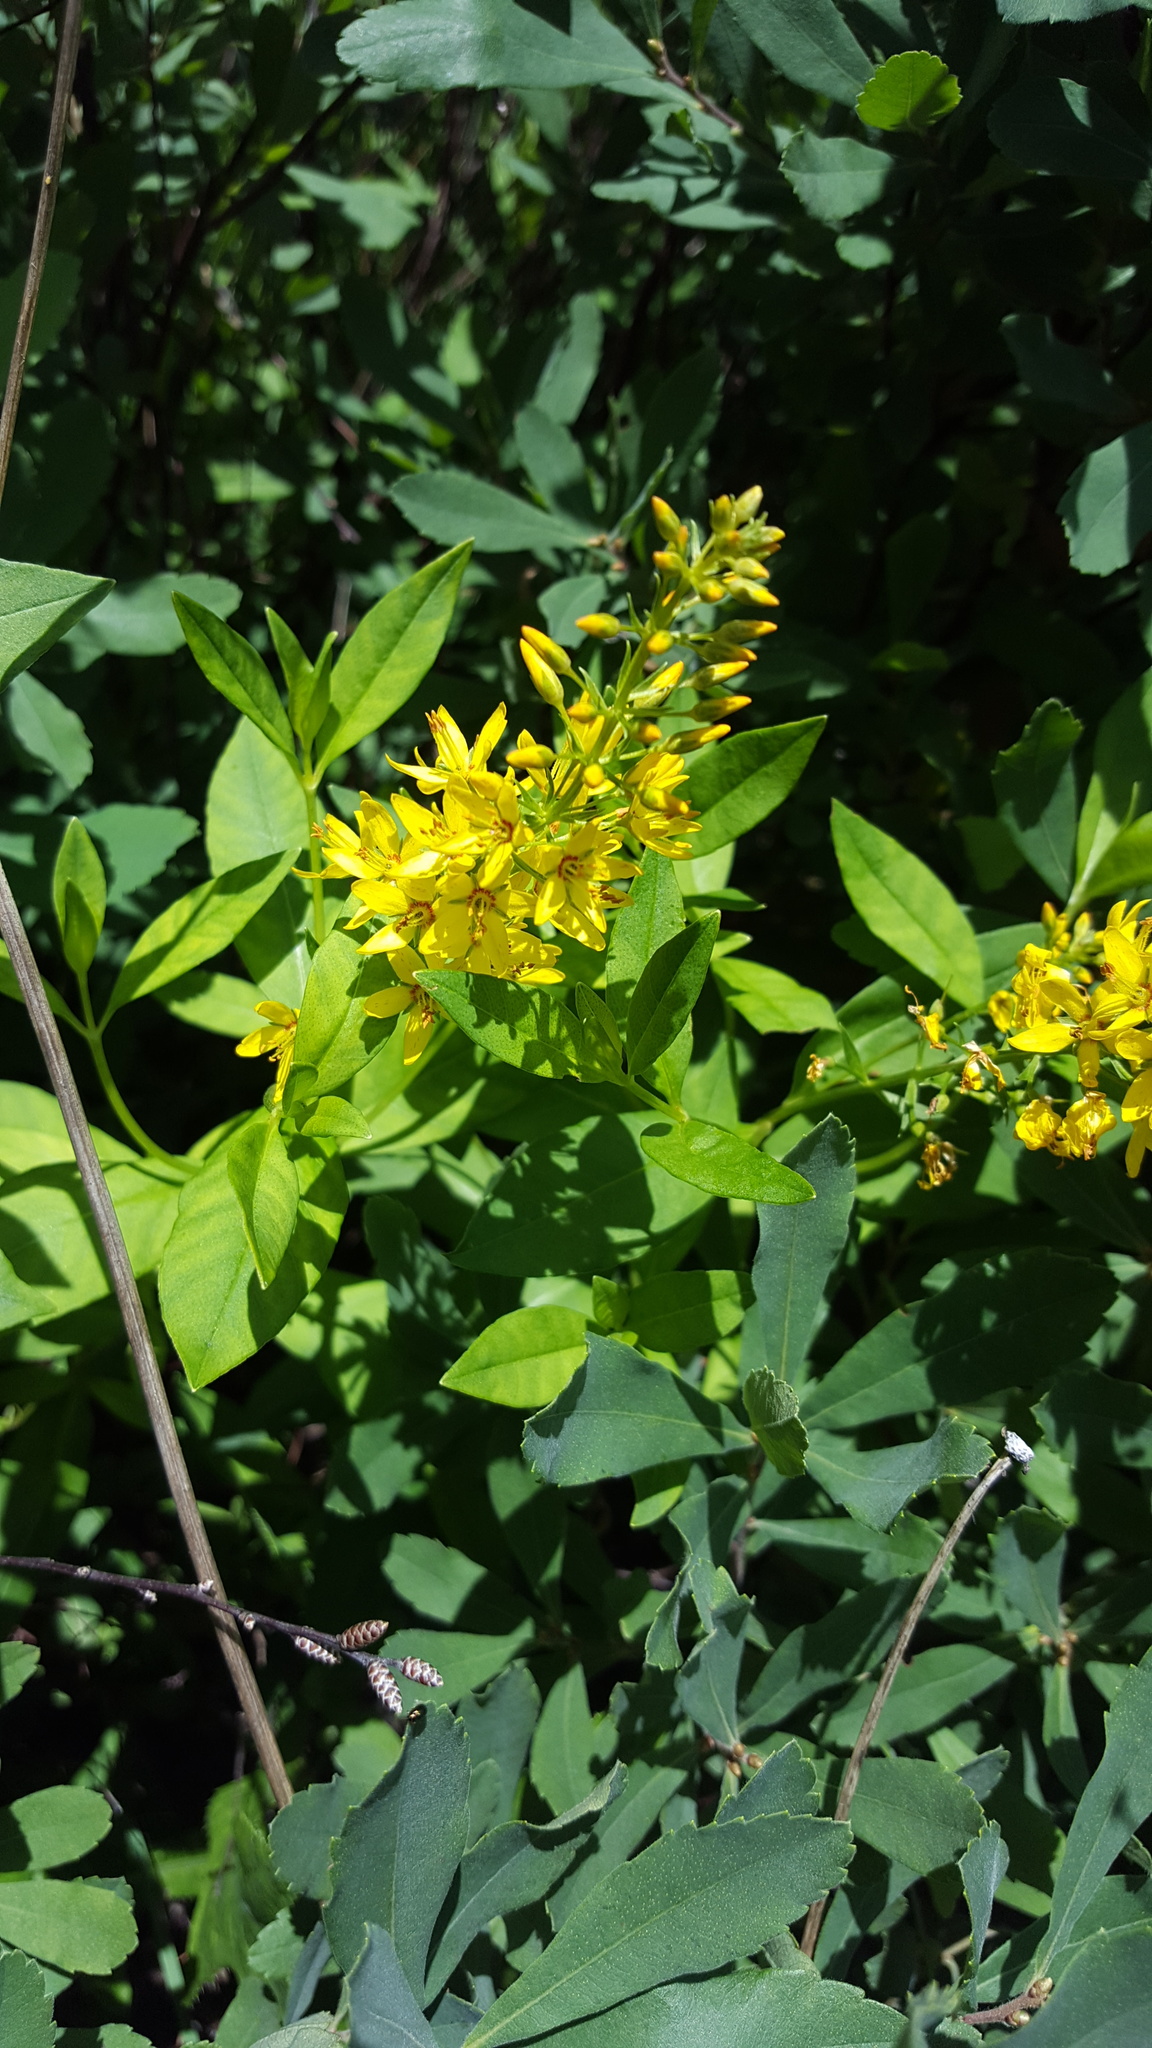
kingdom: Plantae
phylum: Tracheophyta
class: Magnoliopsida
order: Ericales
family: Primulaceae
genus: Lysimachia
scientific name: Lysimachia terrestris
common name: Lake loosestrife
